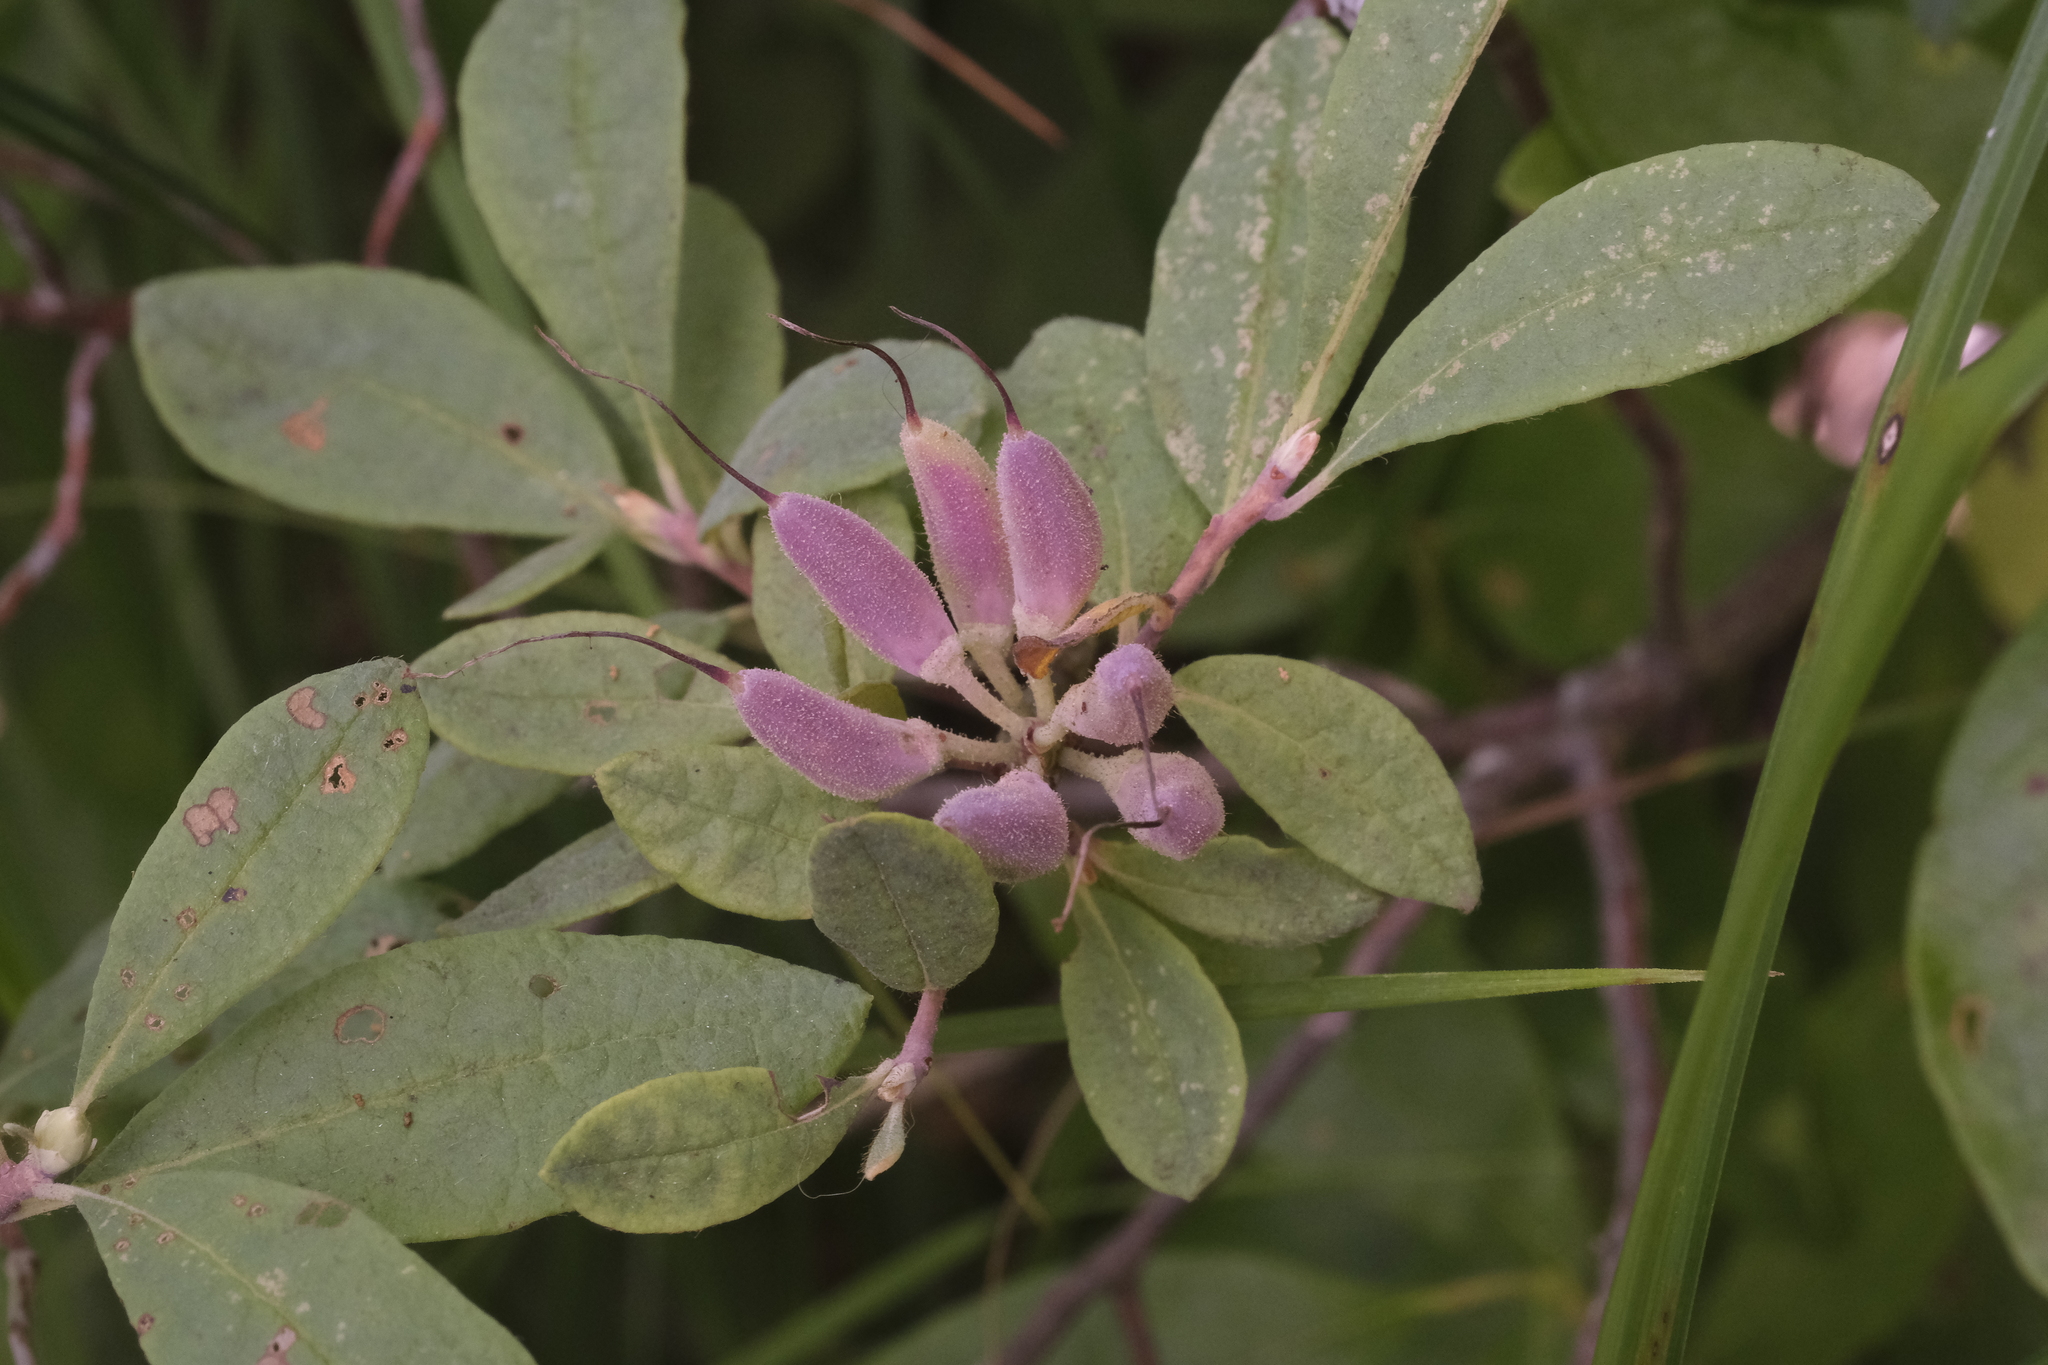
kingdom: Plantae
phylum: Tracheophyta
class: Magnoliopsida
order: Ericales
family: Ericaceae
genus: Rhododendron
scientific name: Rhododendron canadense
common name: Rhodora
